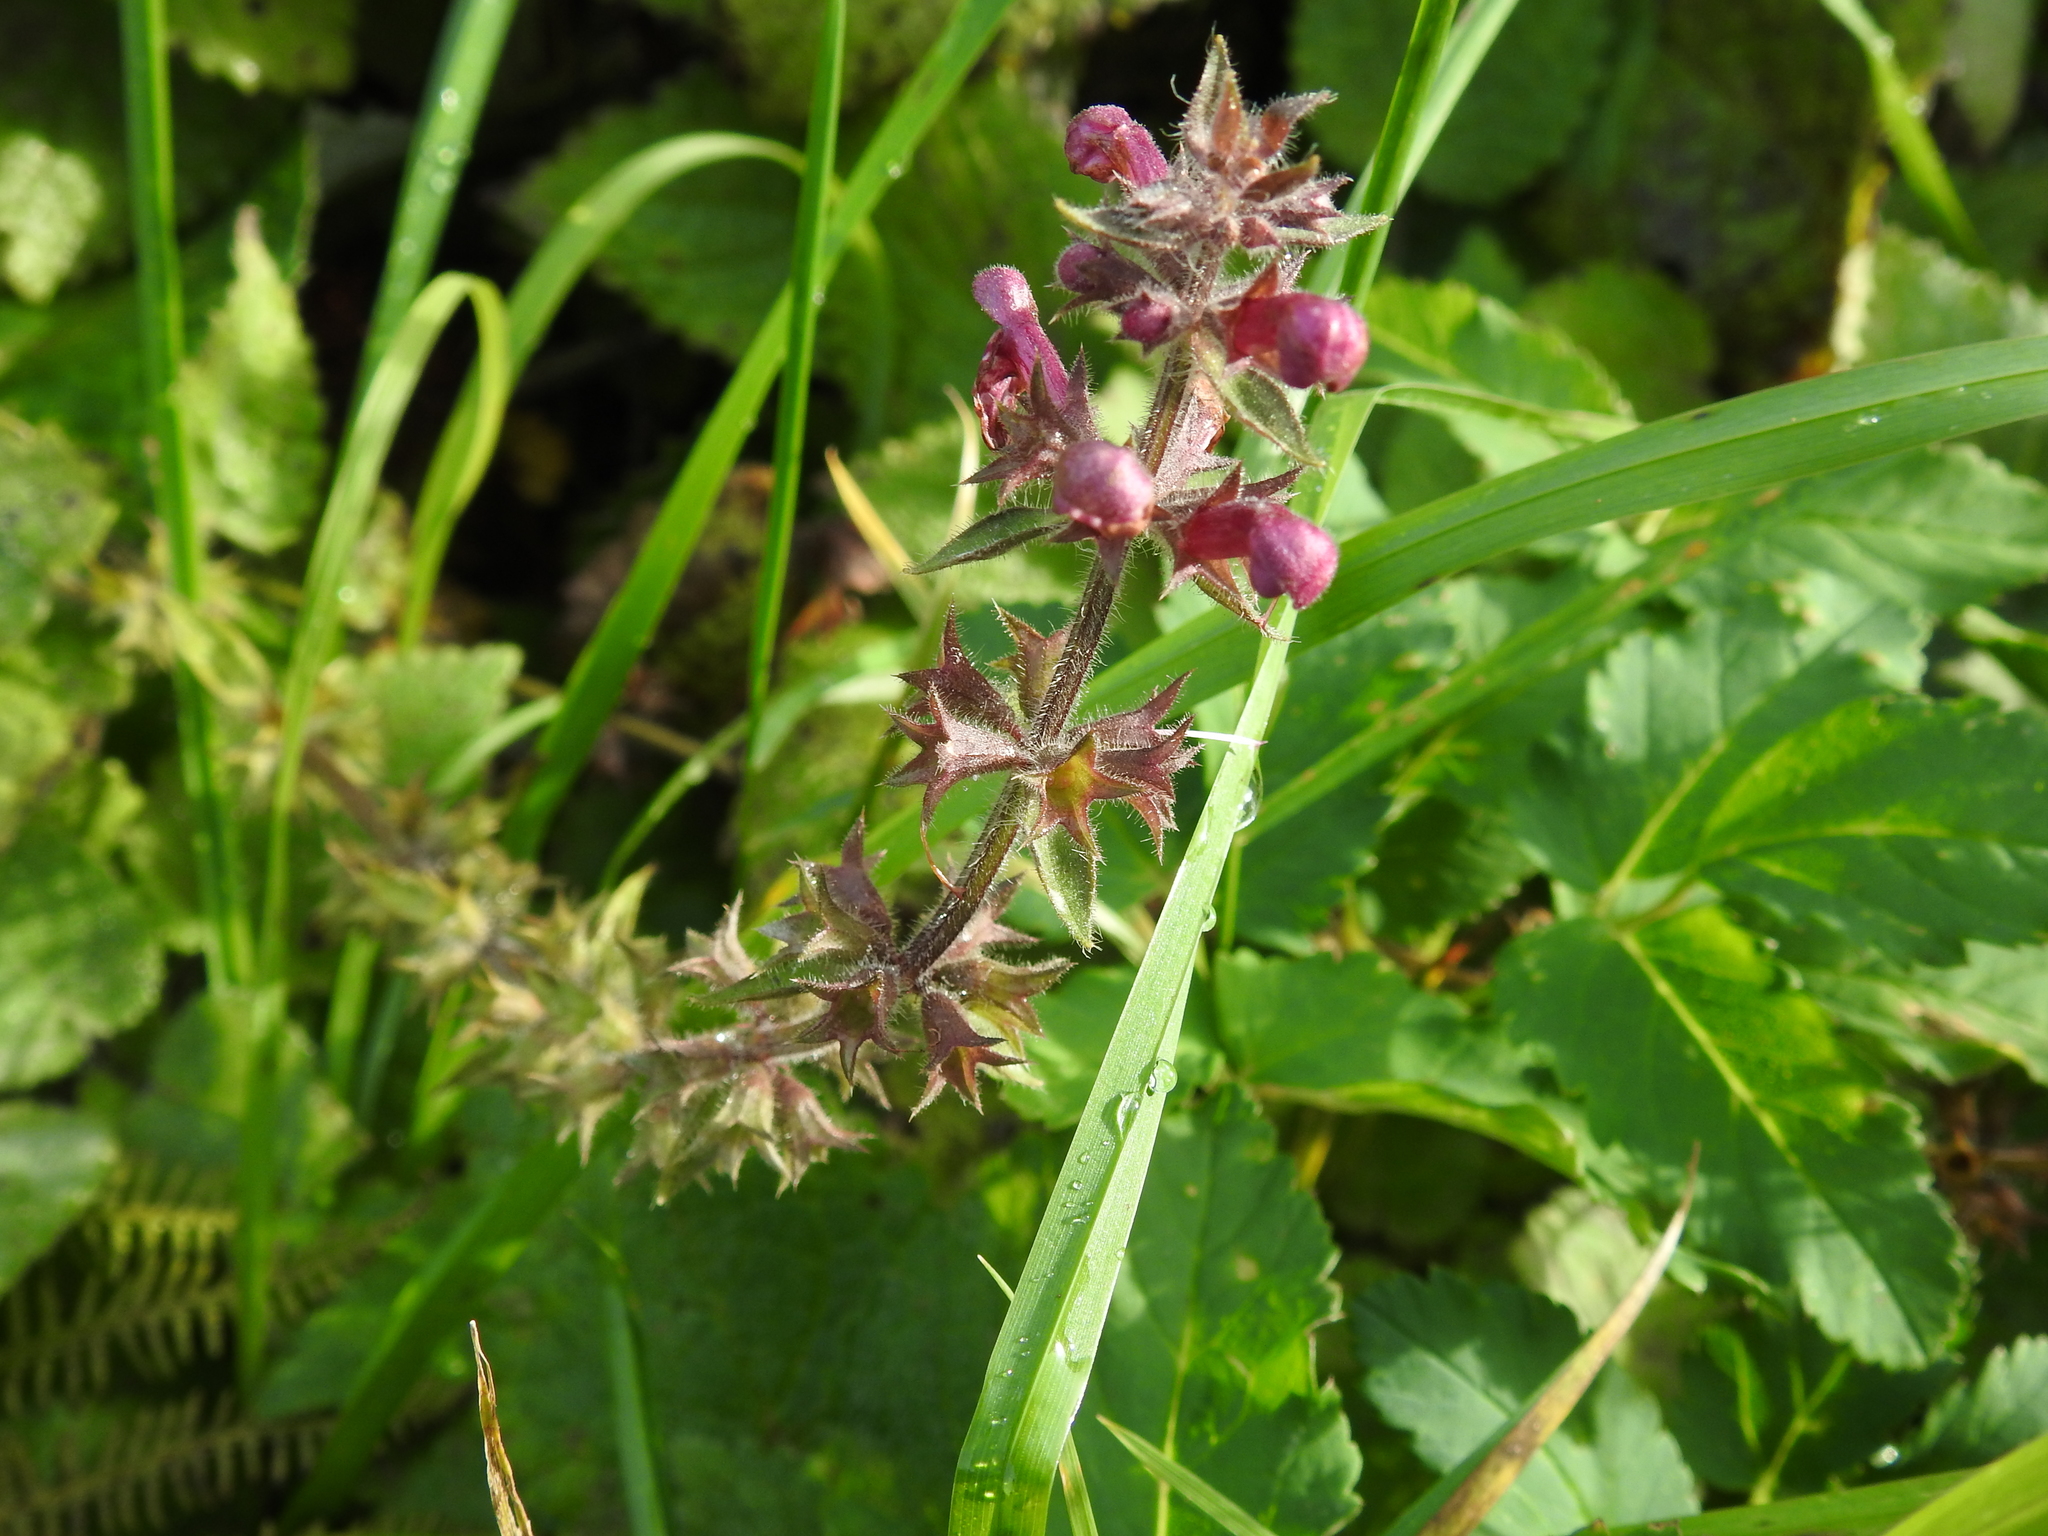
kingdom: Plantae
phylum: Tracheophyta
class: Magnoliopsida
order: Lamiales
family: Lamiaceae
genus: Stachys
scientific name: Stachys sylvatica
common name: Hedge woundwort
